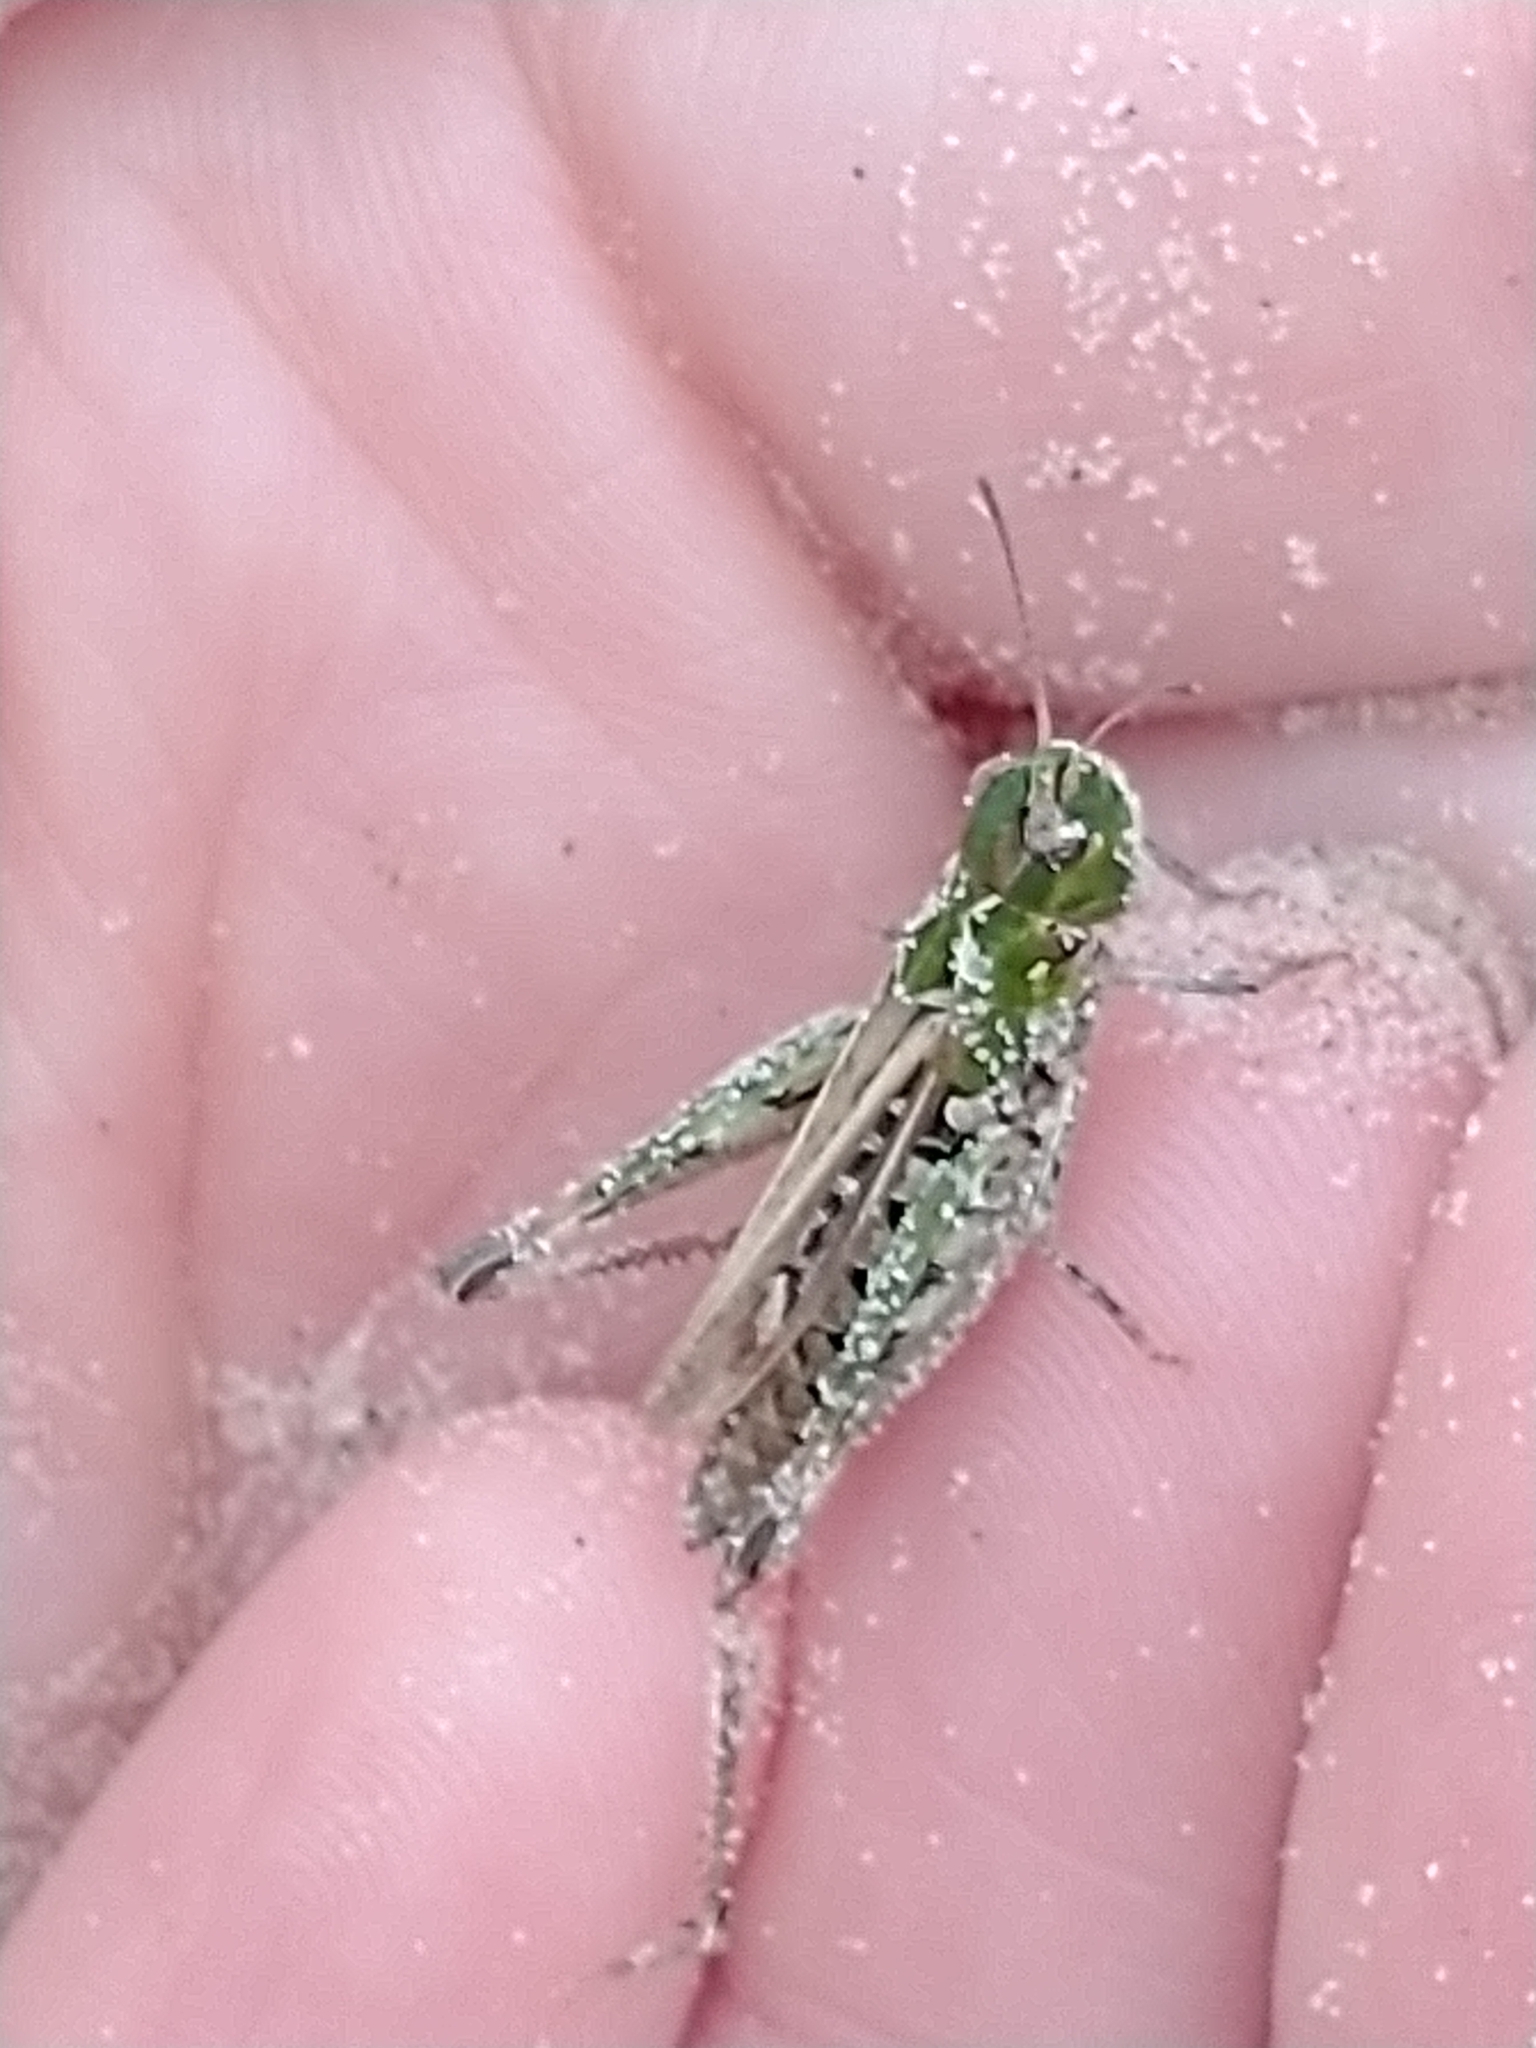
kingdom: Animalia
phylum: Arthropoda
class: Insecta
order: Orthoptera
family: Acrididae
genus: Myrmeleotettix
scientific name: Myrmeleotettix maculatus
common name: Mottled grasshopper
